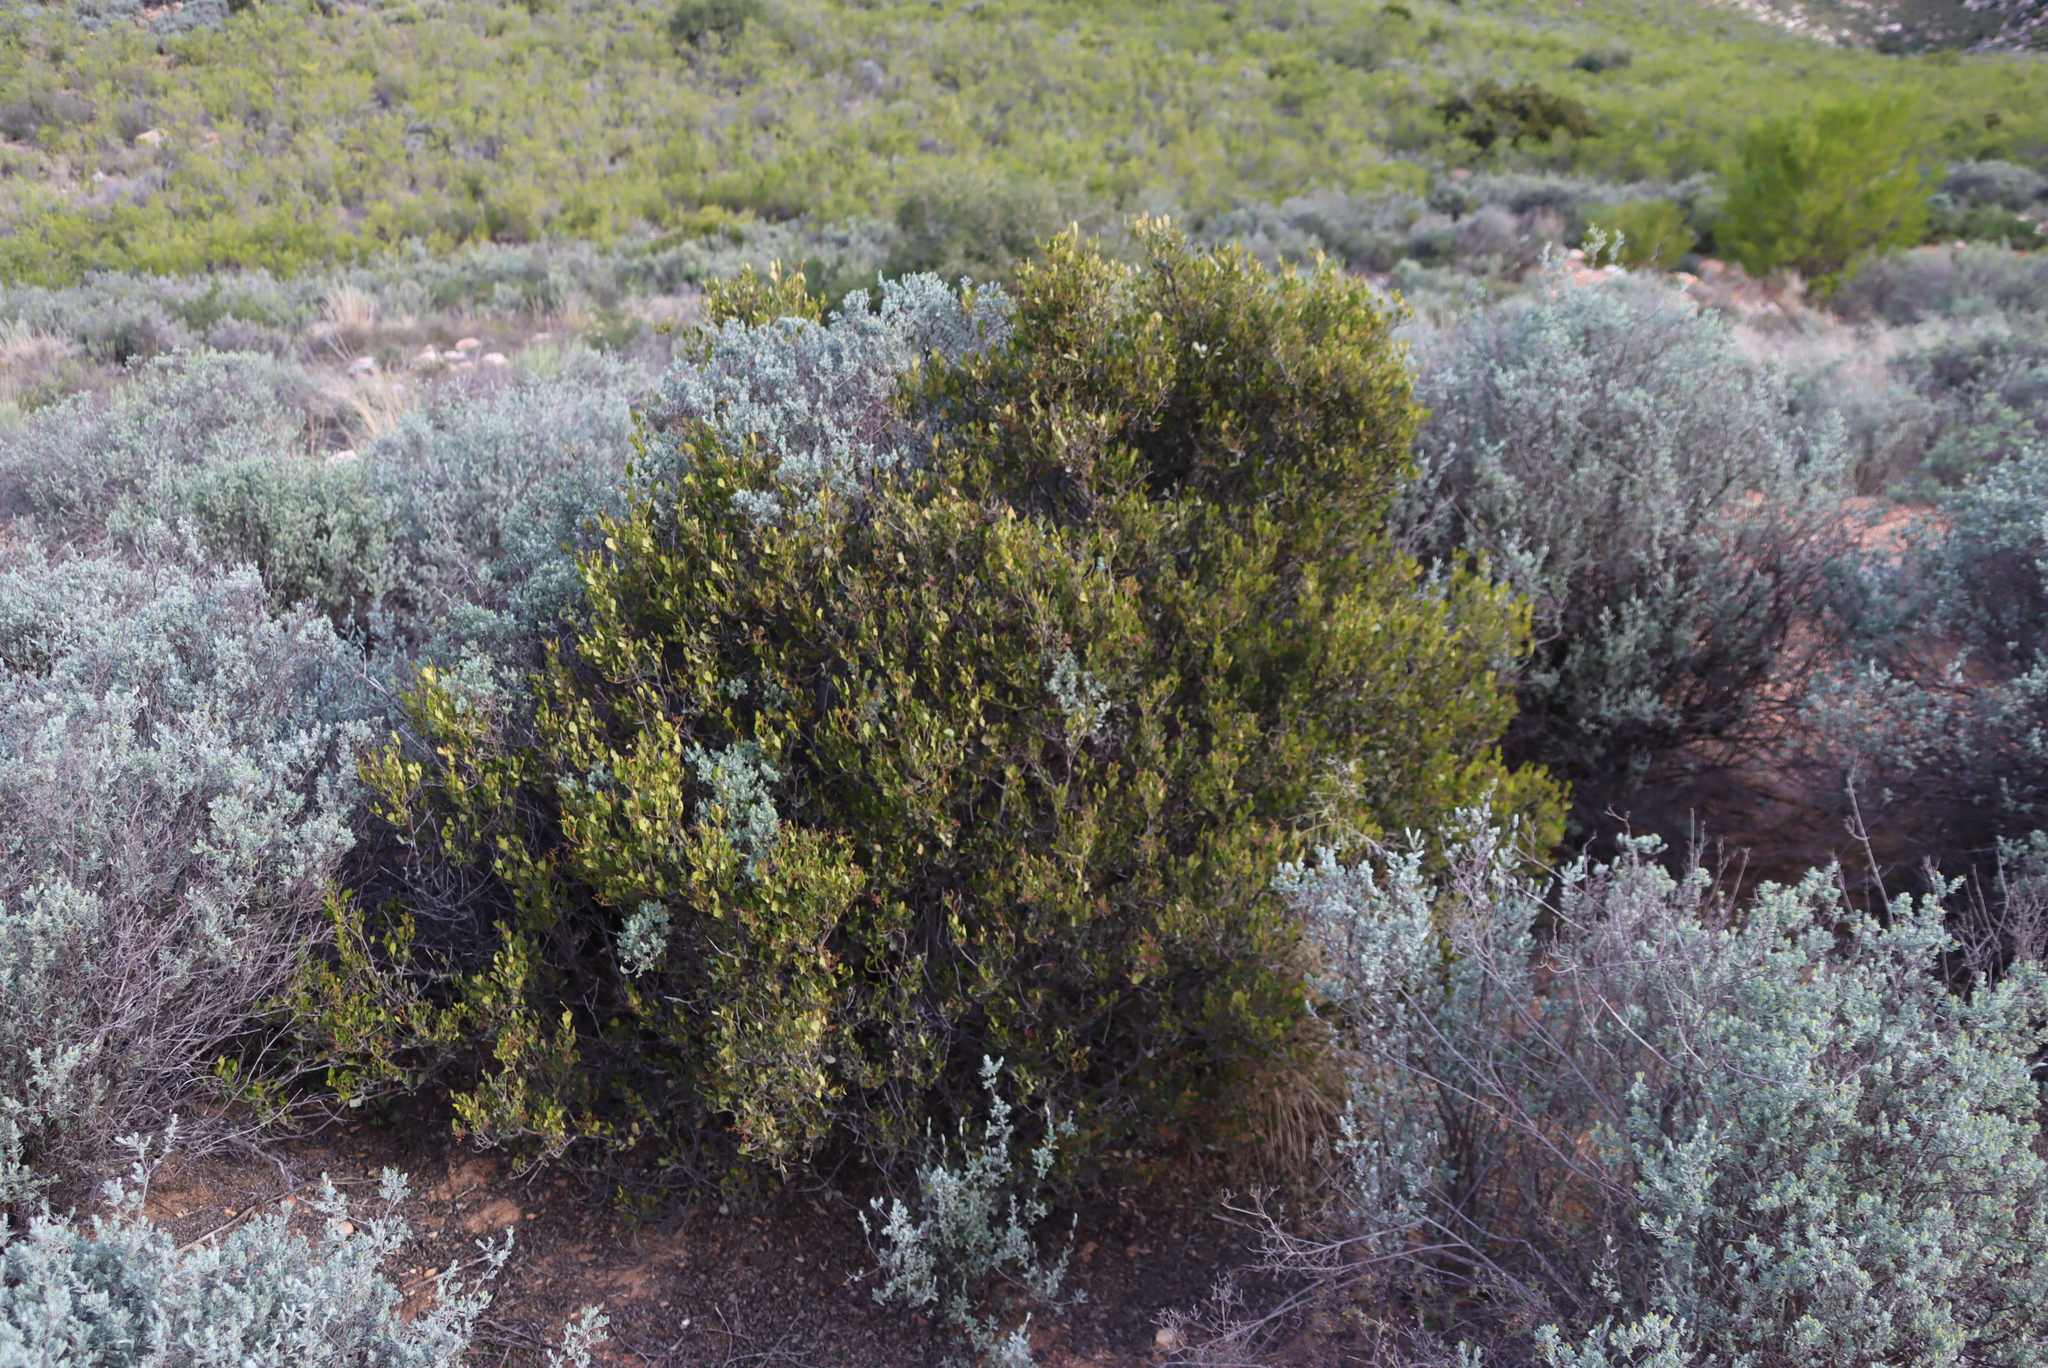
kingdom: Plantae
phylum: Tracheophyta
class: Magnoliopsida
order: Asterales
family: Asteraceae
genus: Pteronia
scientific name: Pteronia incana
